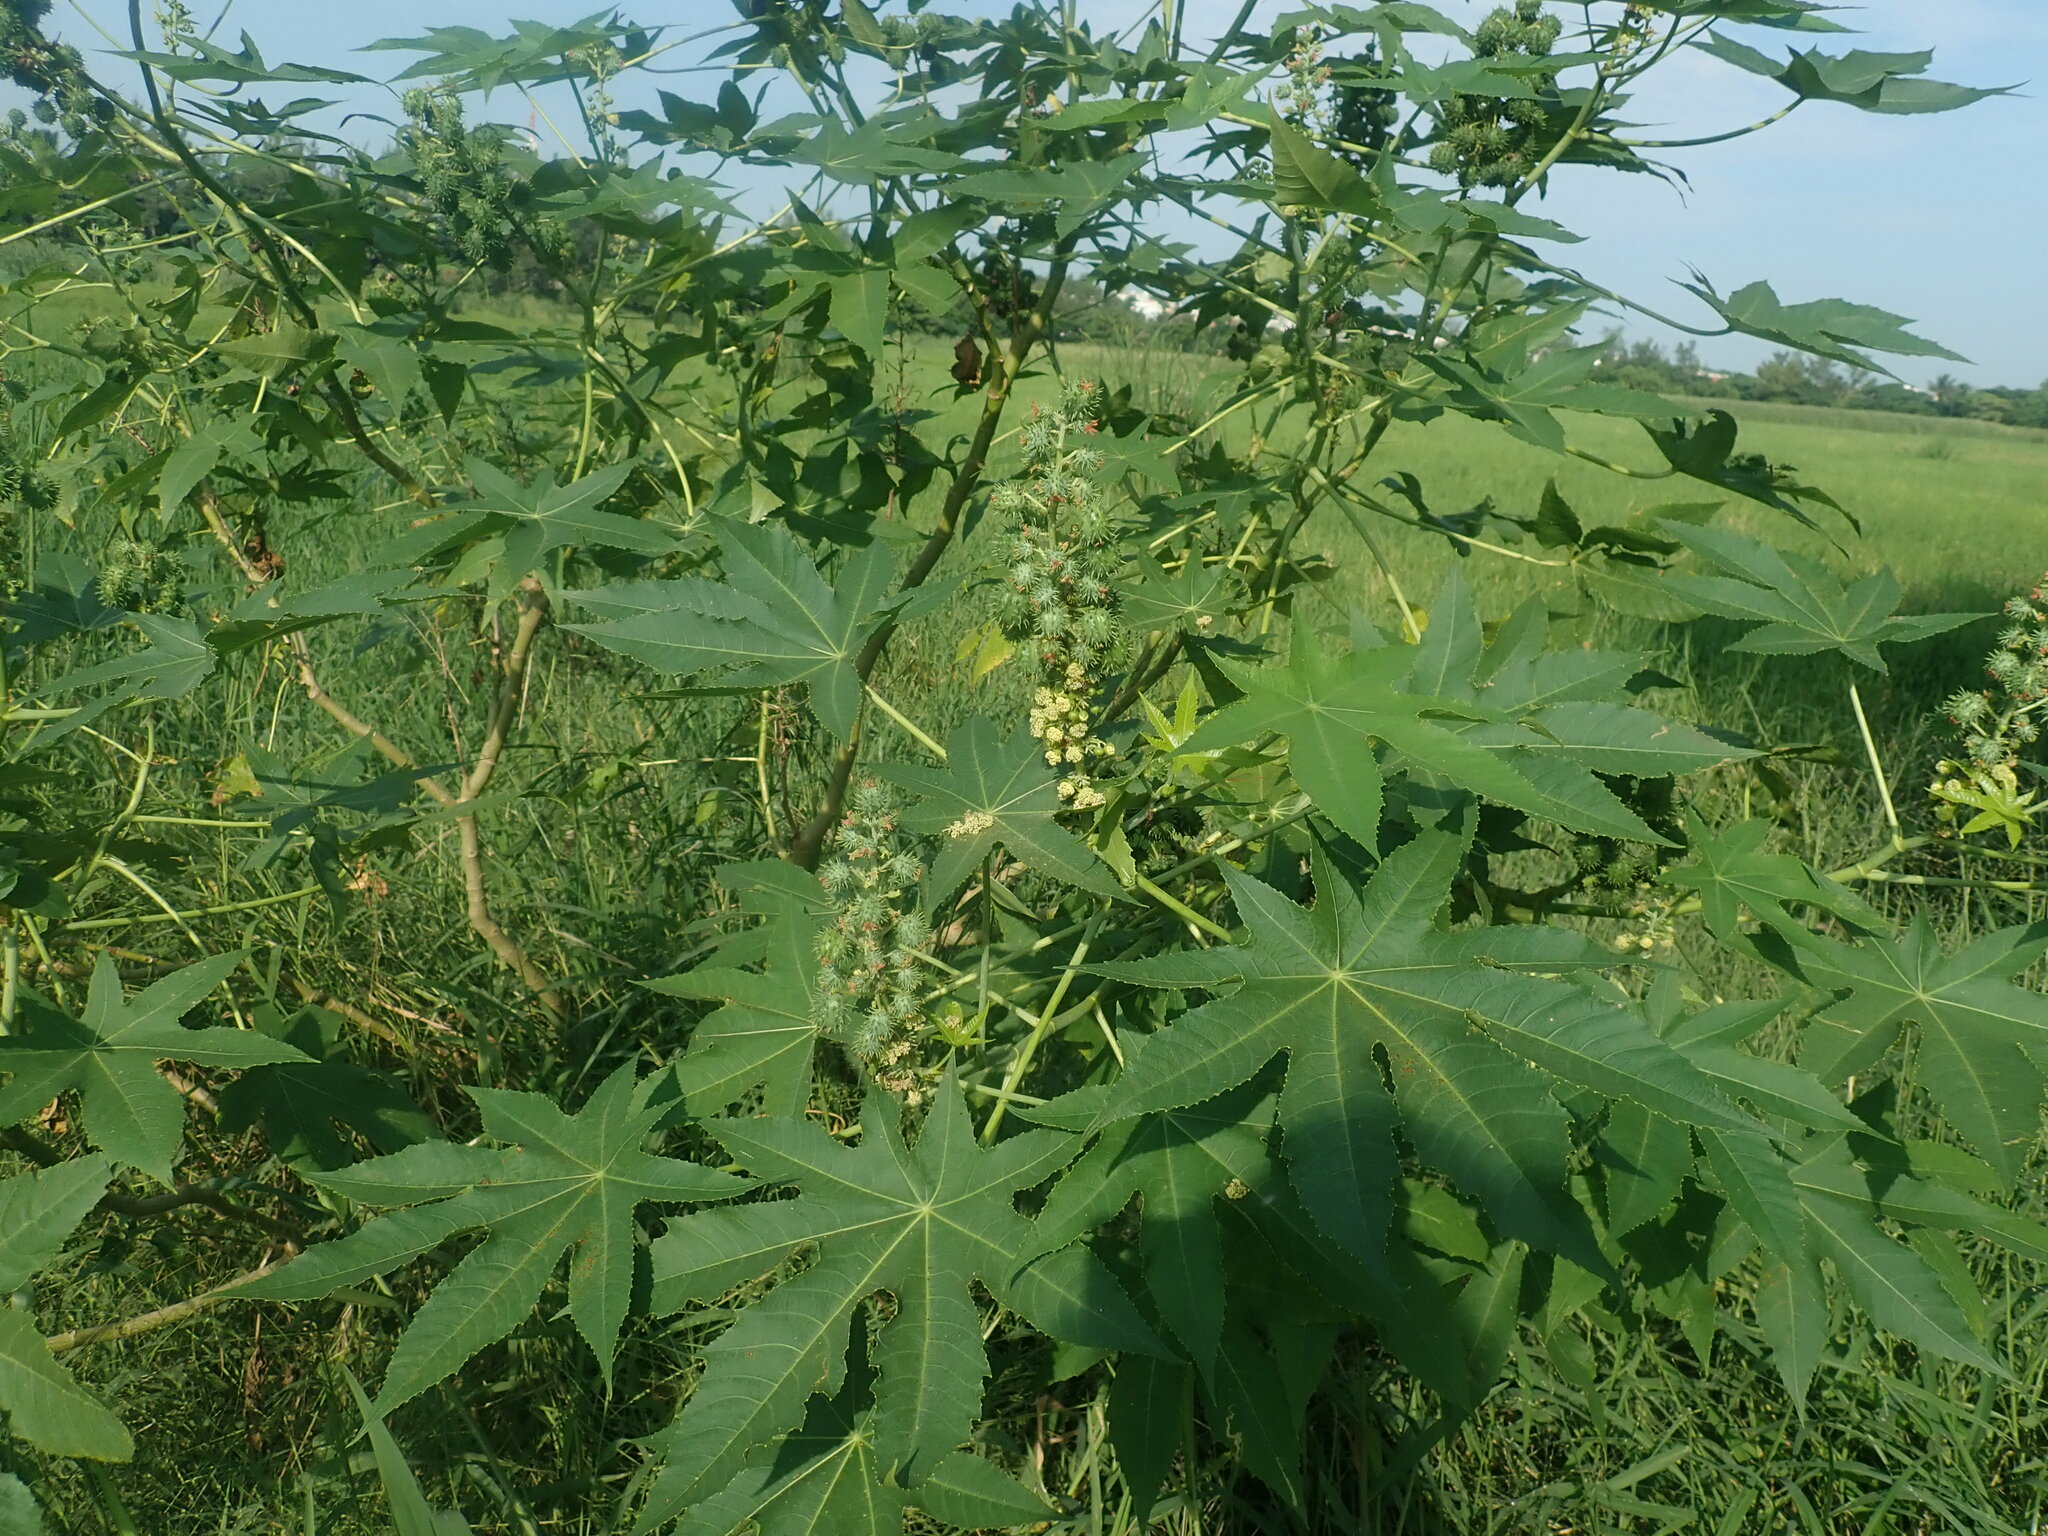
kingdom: Plantae
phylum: Tracheophyta
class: Magnoliopsida
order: Malpighiales
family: Euphorbiaceae
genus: Ricinus
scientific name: Ricinus communis
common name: Castor-oil-plant
